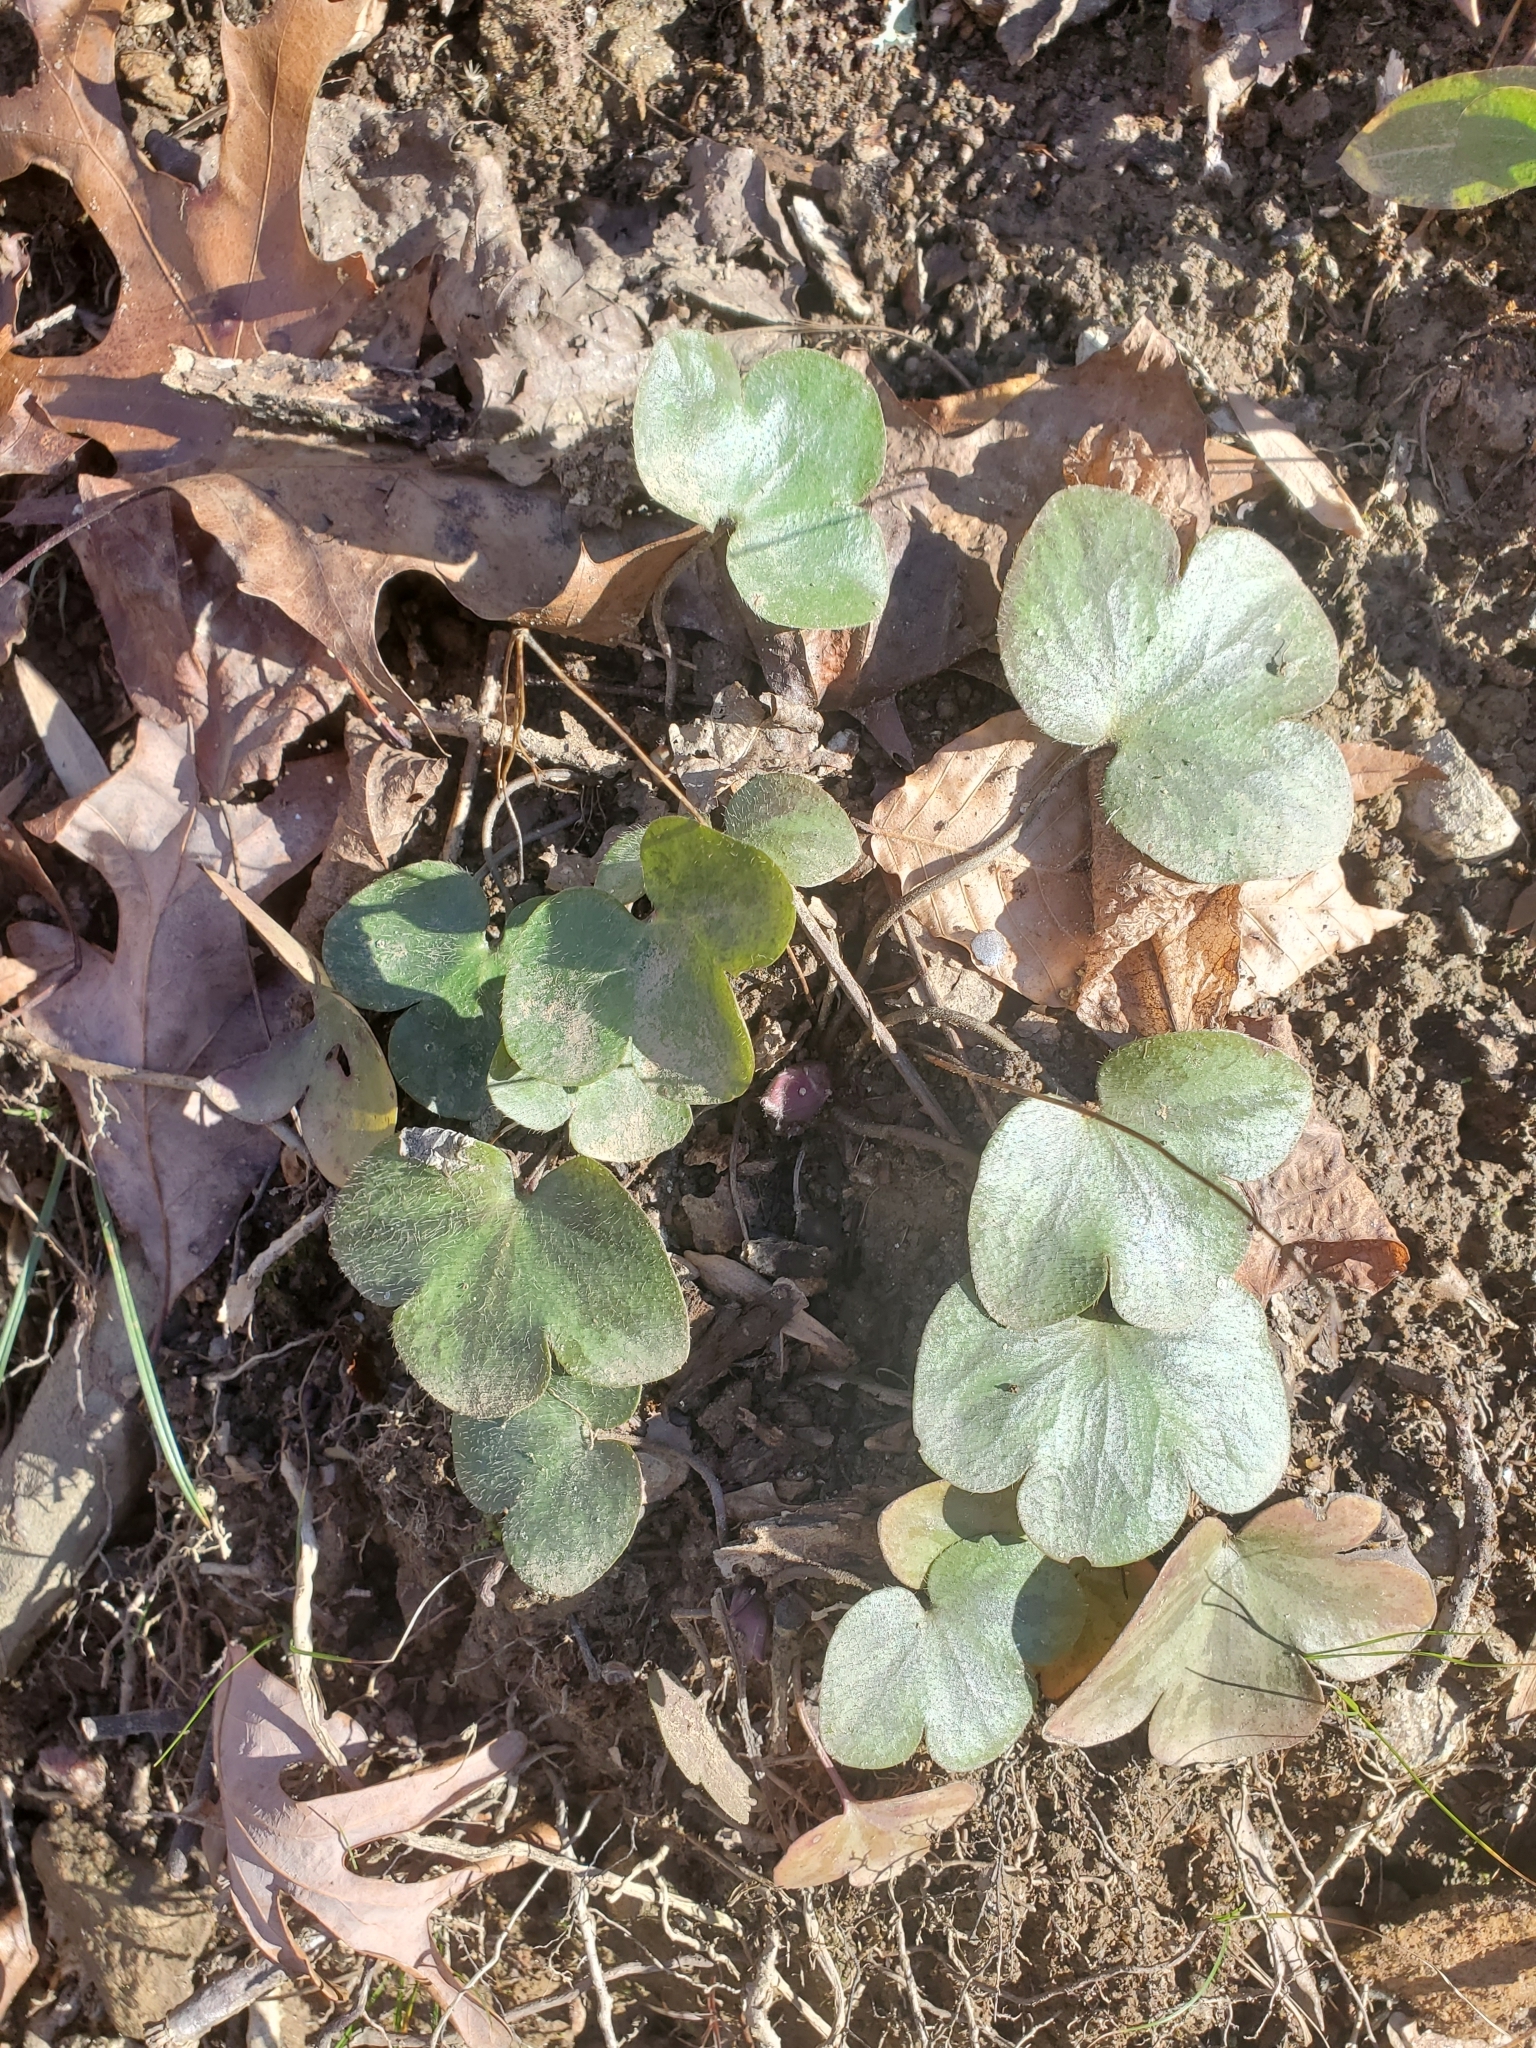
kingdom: Plantae
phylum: Tracheophyta
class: Magnoliopsida
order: Ranunculales
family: Ranunculaceae
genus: Hepatica
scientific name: Hepatica americana
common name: American hepatica
